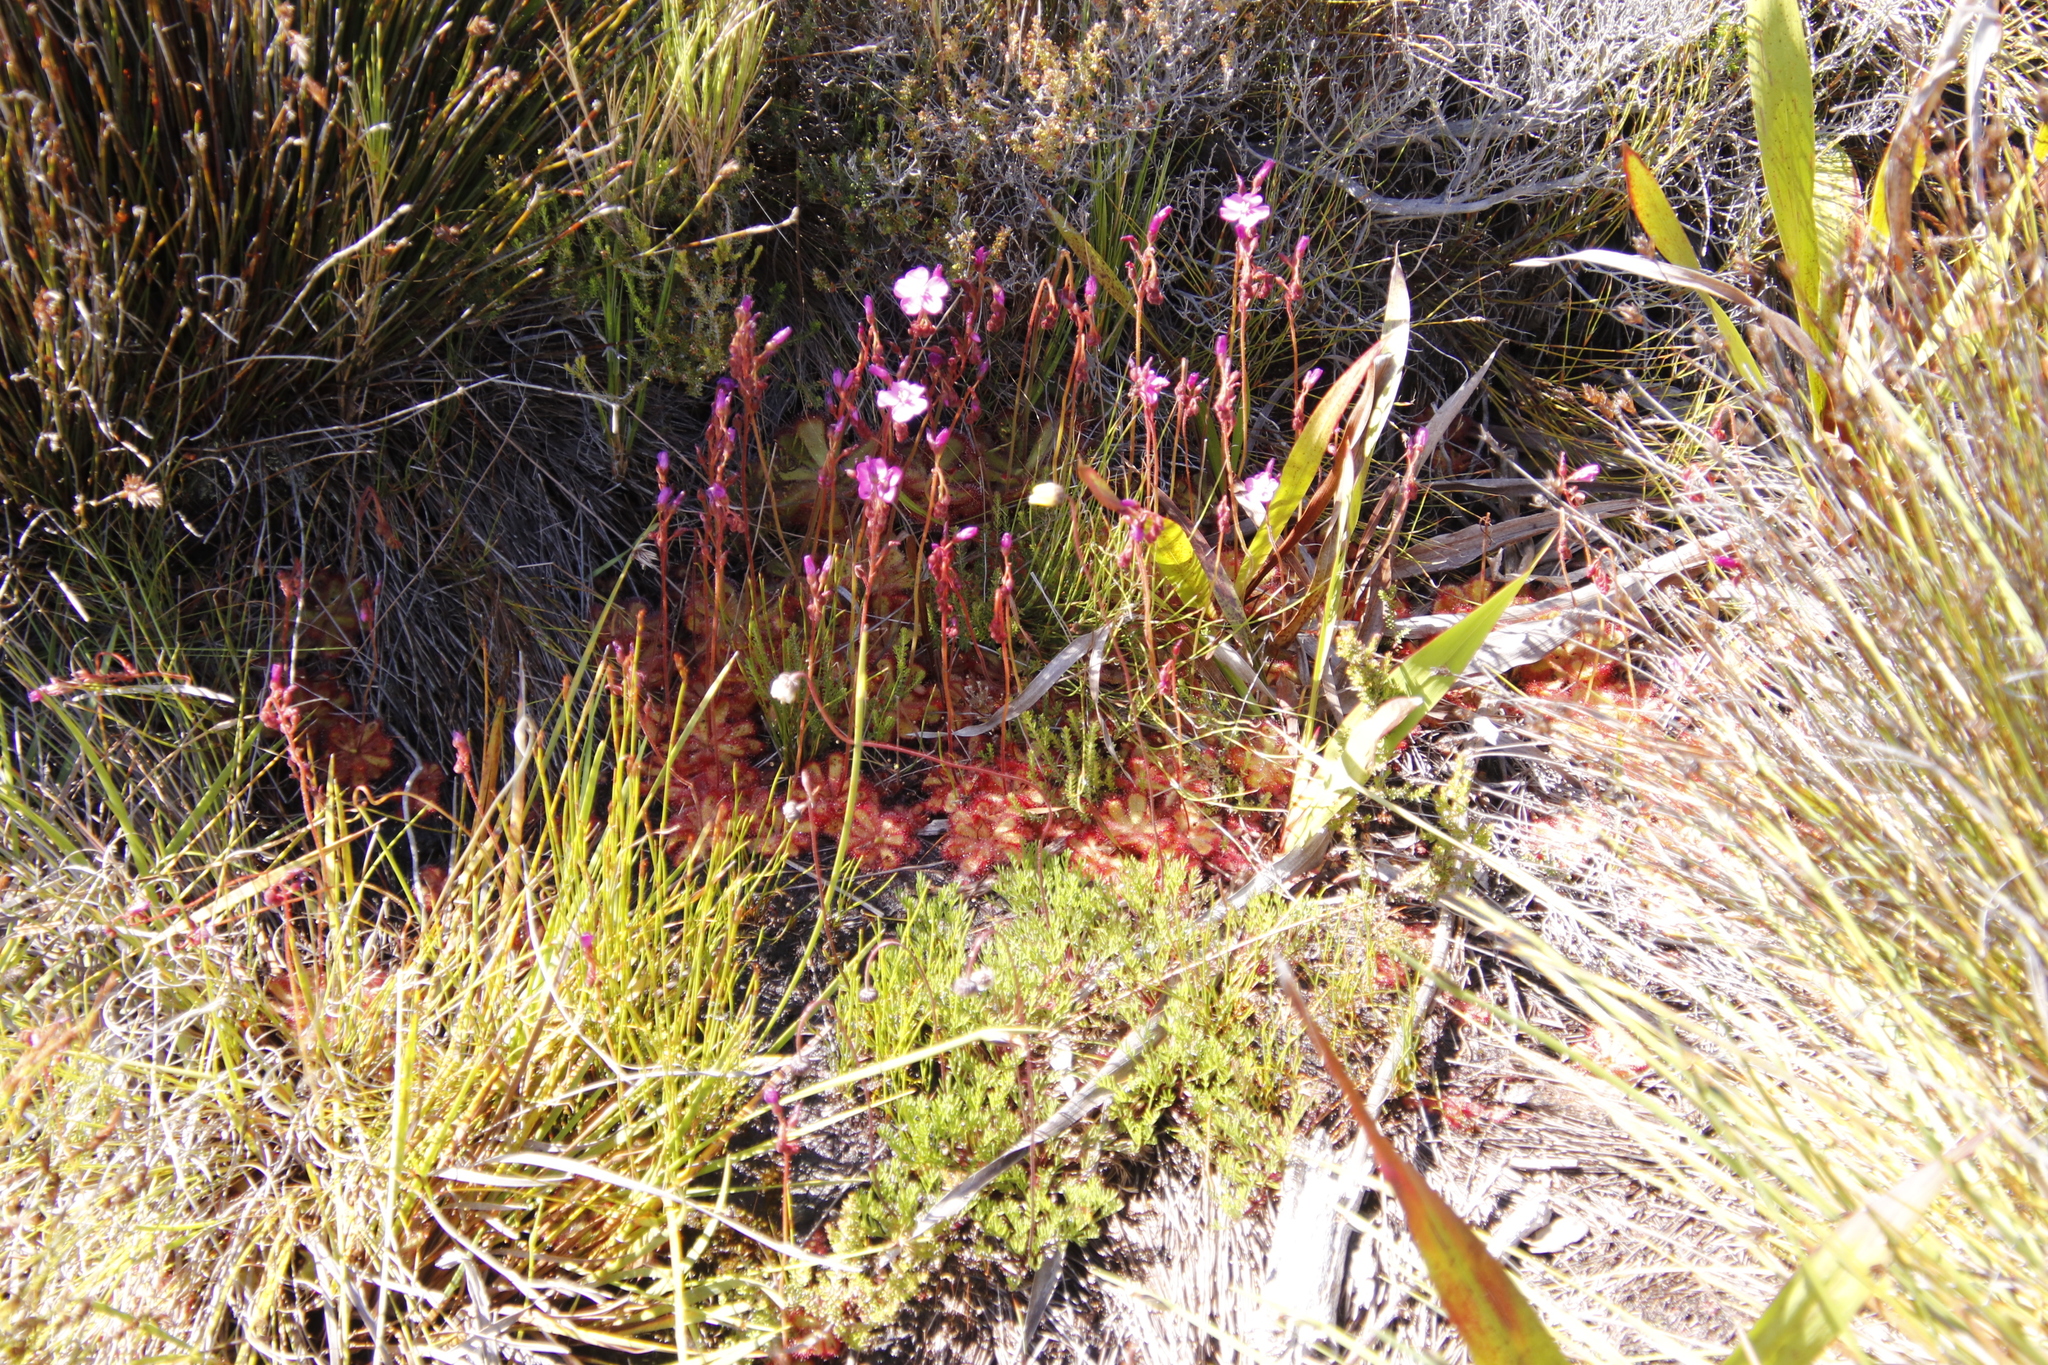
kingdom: Plantae
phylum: Tracheophyta
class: Magnoliopsida
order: Caryophyllales
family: Droseraceae
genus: Drosera
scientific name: Drosera cuneifolia
